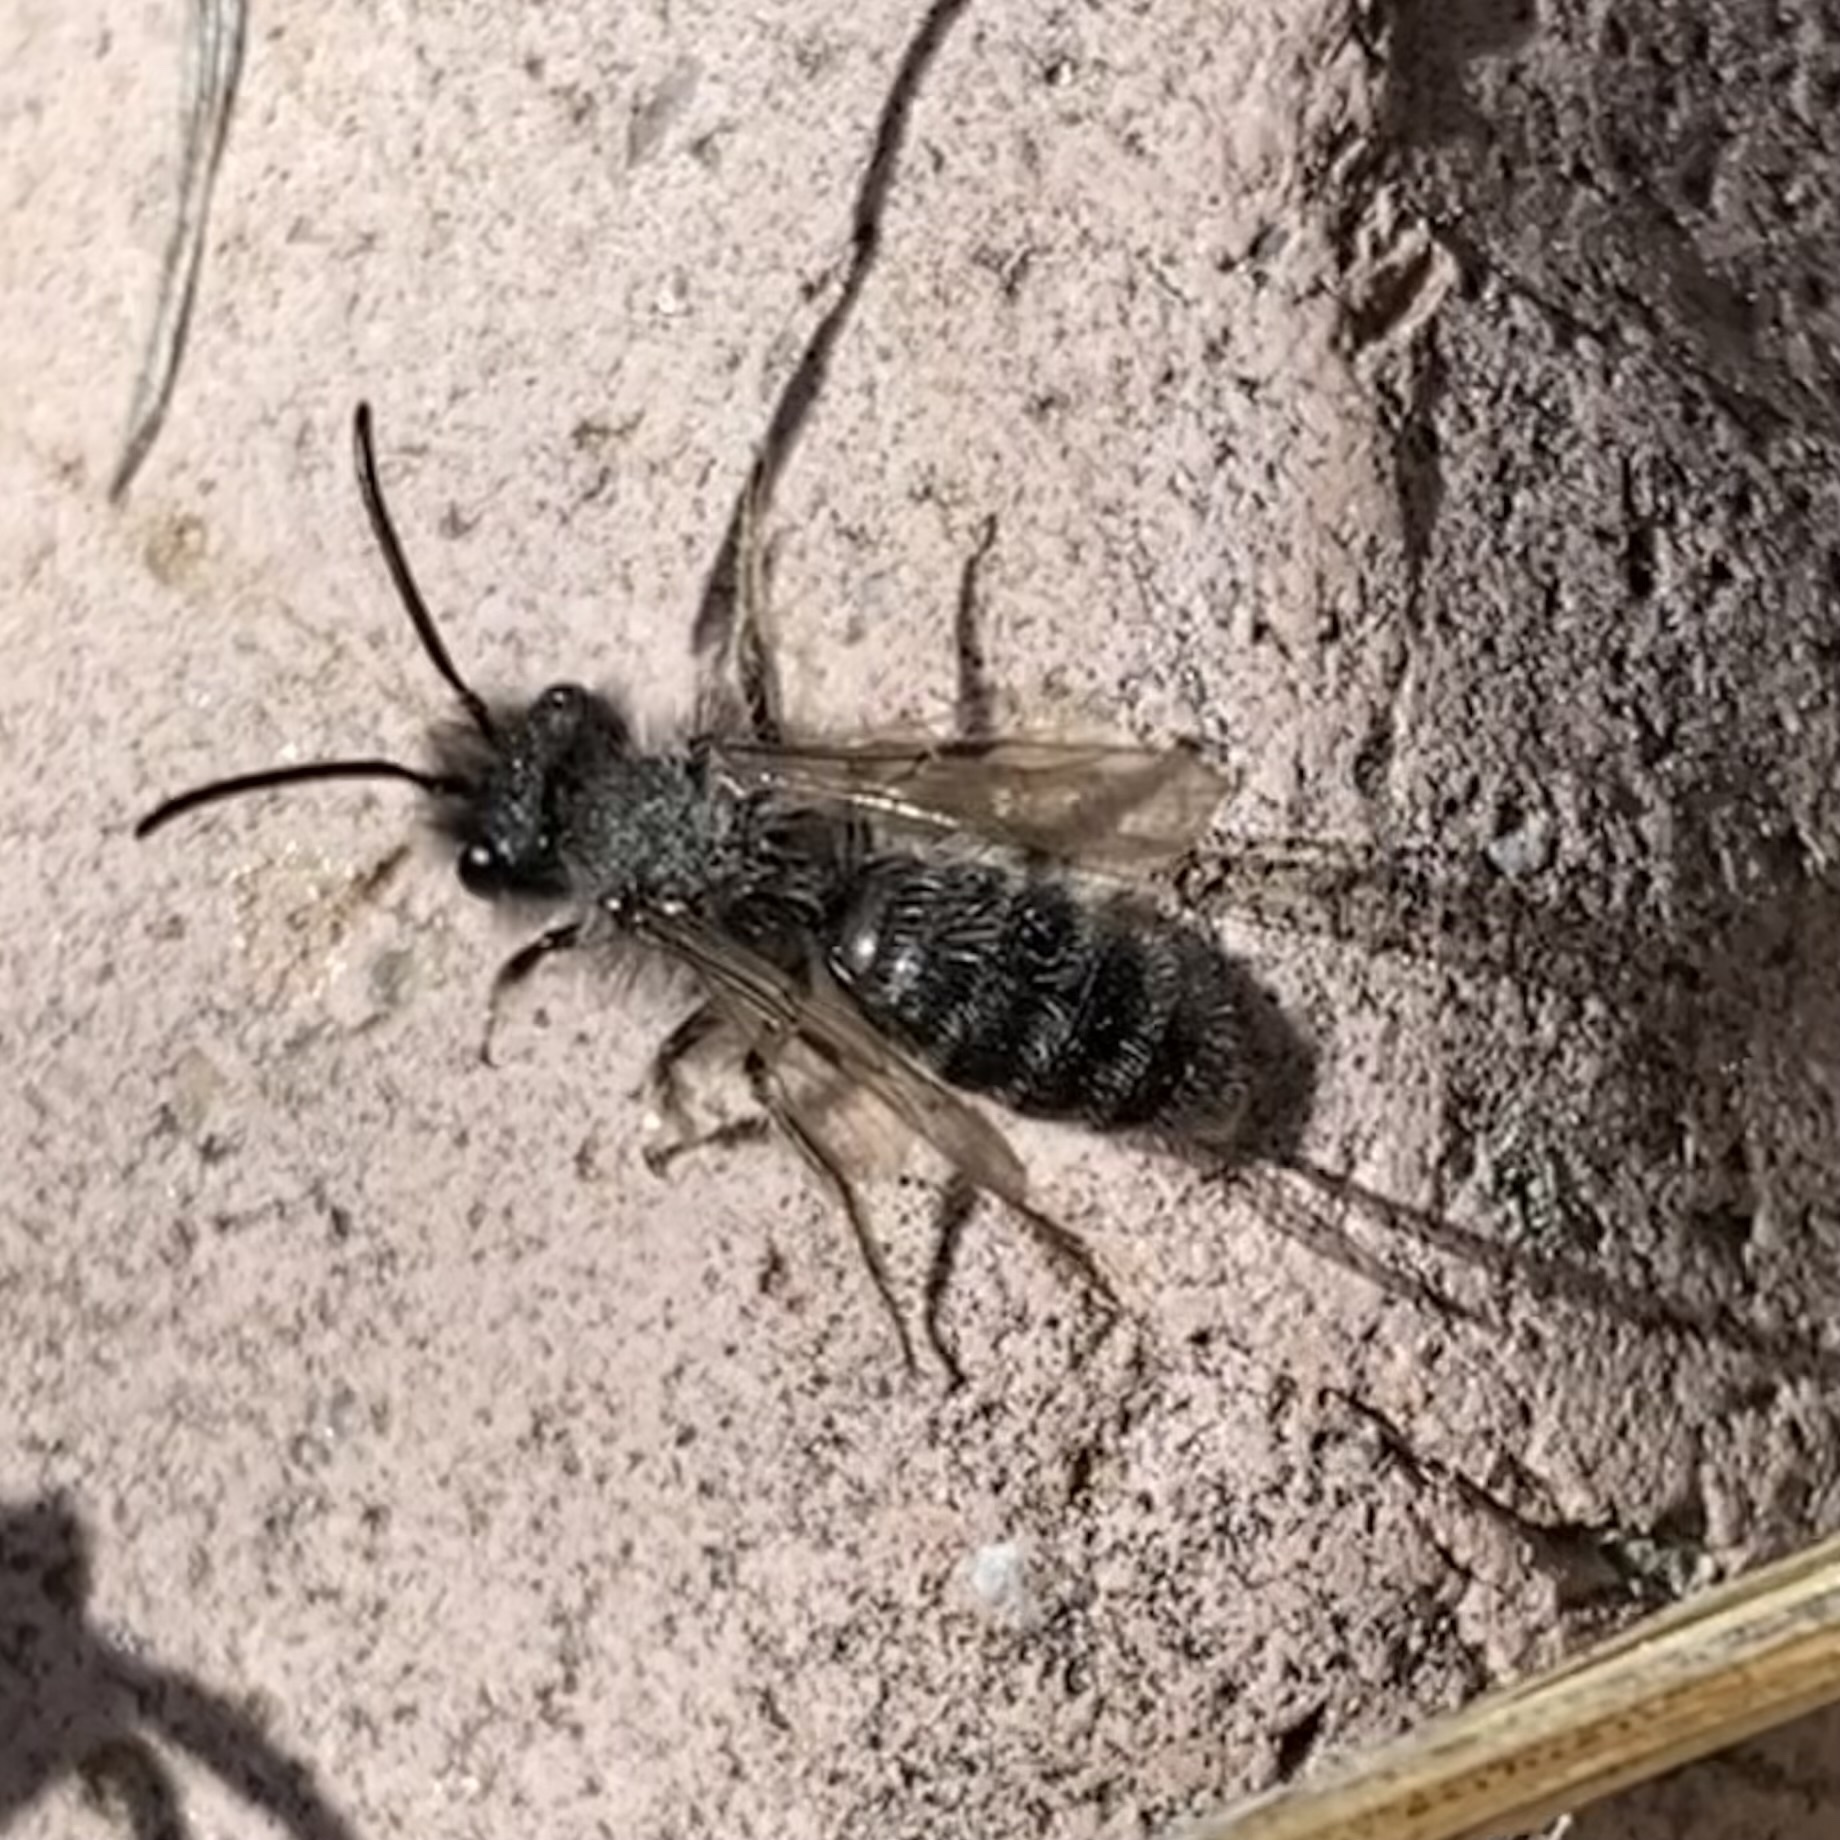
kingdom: Animalia
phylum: Arthropoda
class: Insecta
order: Hymenoptera
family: Andrenidae
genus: Andrena
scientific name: Andrena
